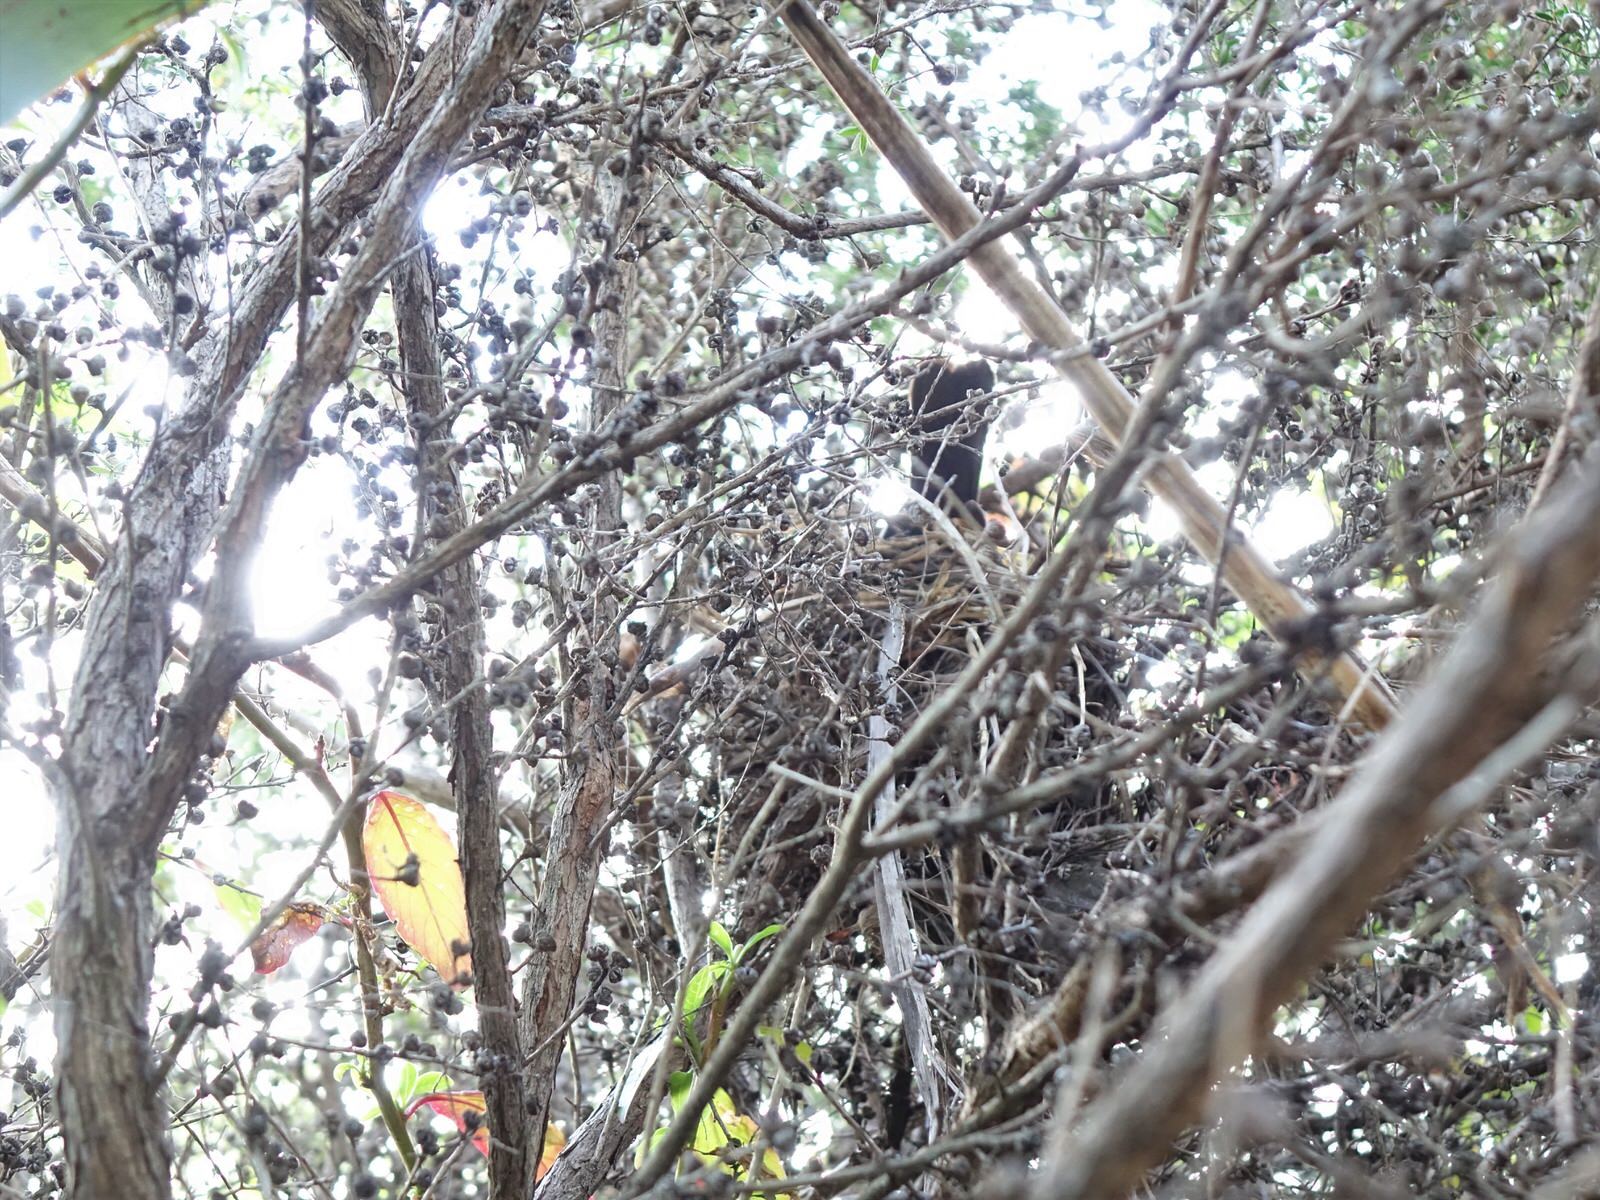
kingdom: Animalia
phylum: Chordata
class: Aves
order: Passeriformes
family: Turdidae
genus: Turdus
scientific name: Turdus merula
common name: Common blackbird
